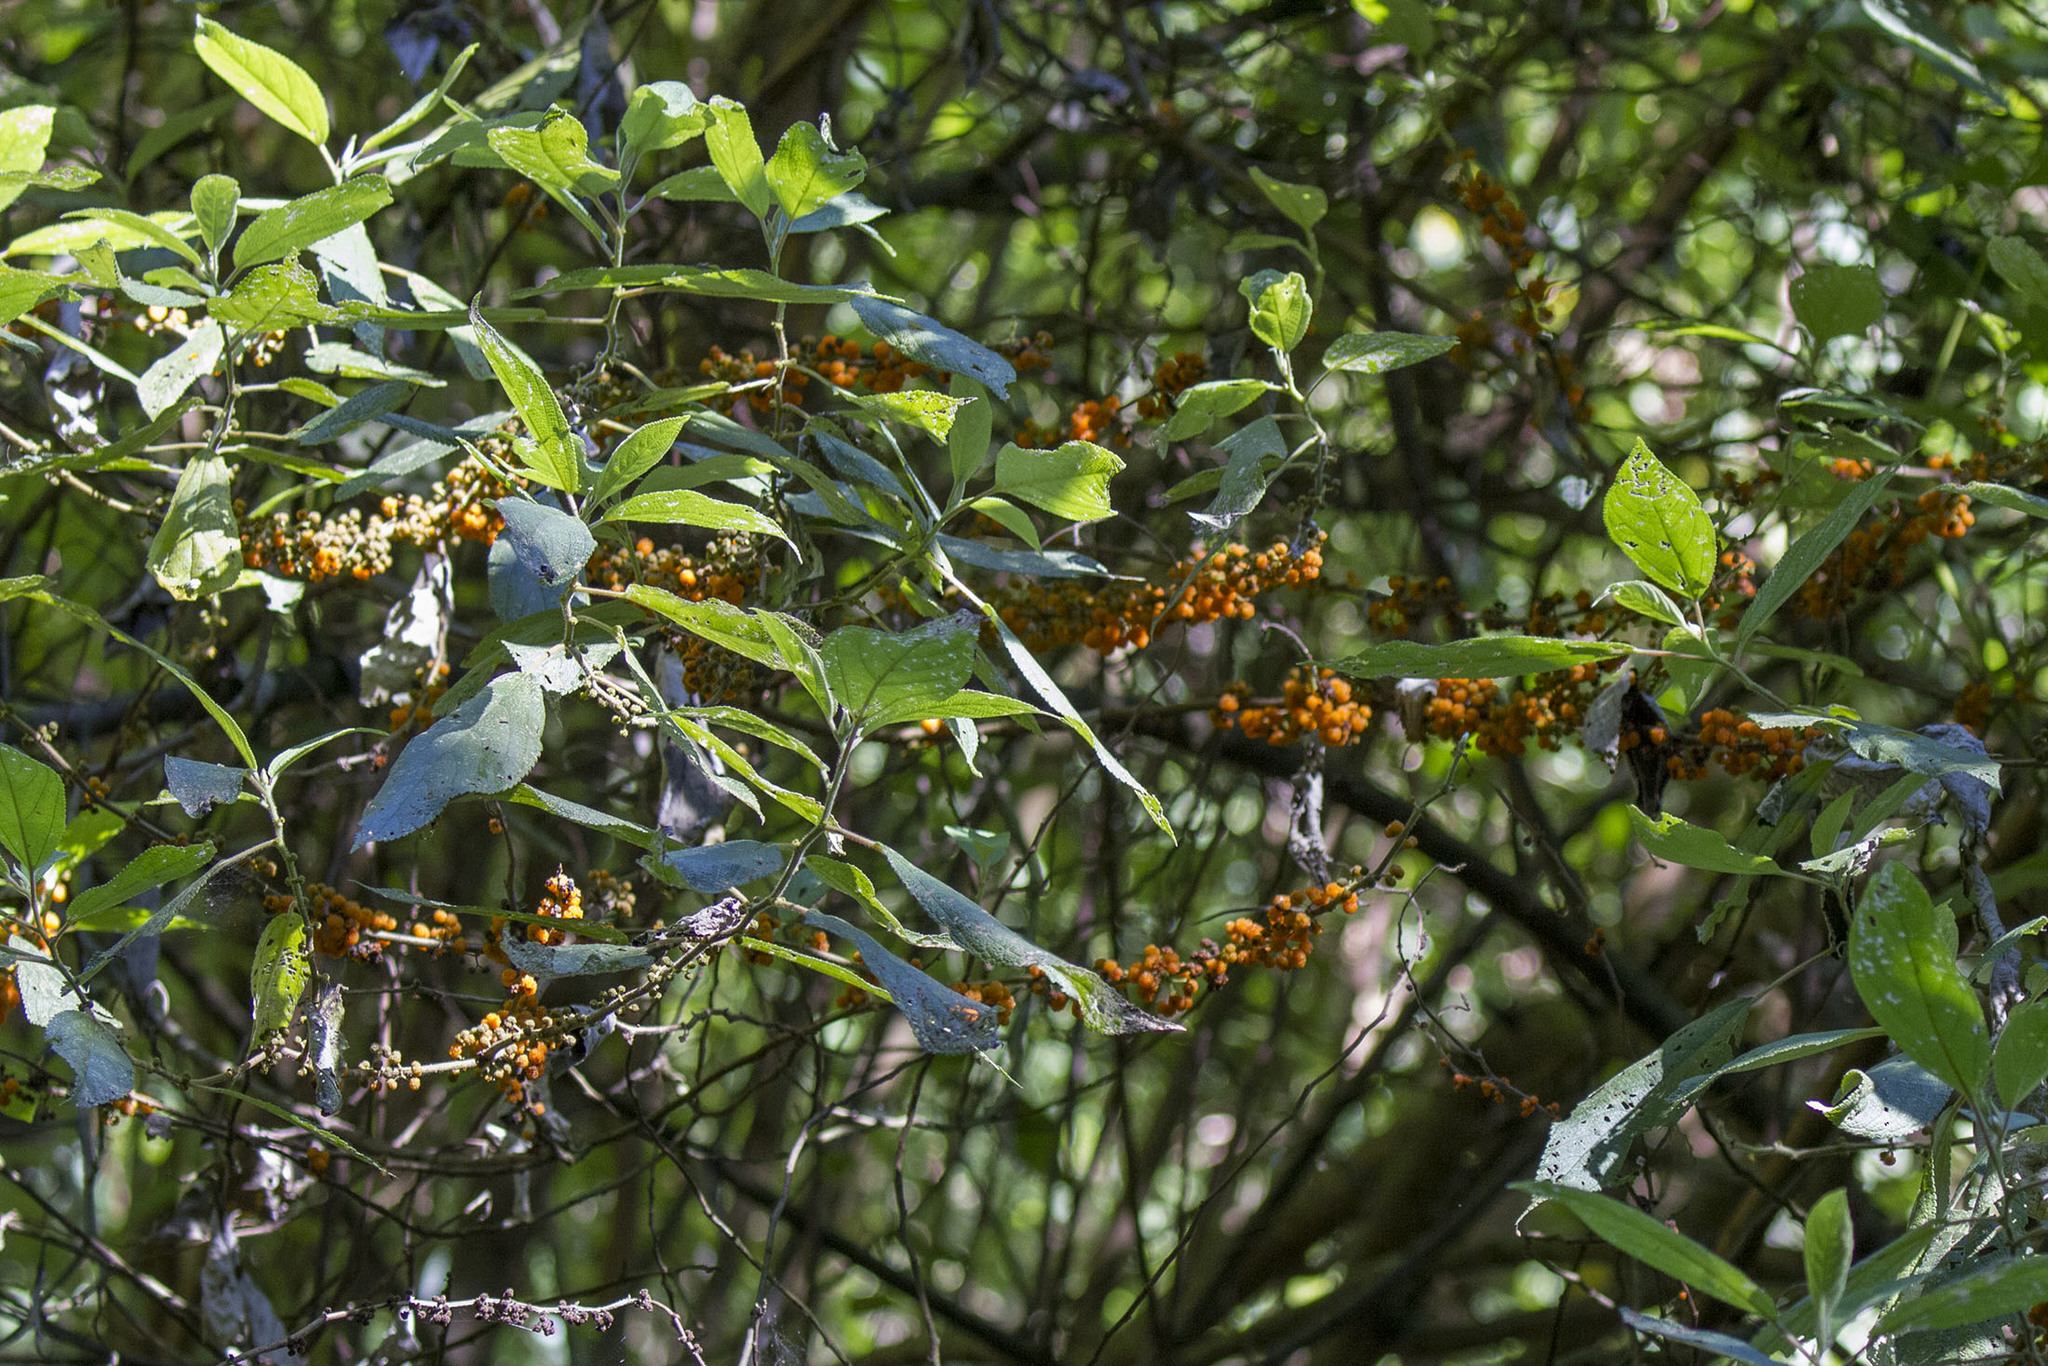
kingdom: Plantae
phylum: Tracheophyta
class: Magnoliopsida
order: Rosales
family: Urticaceae
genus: Debregeasia
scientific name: Debregeasia orientalis
